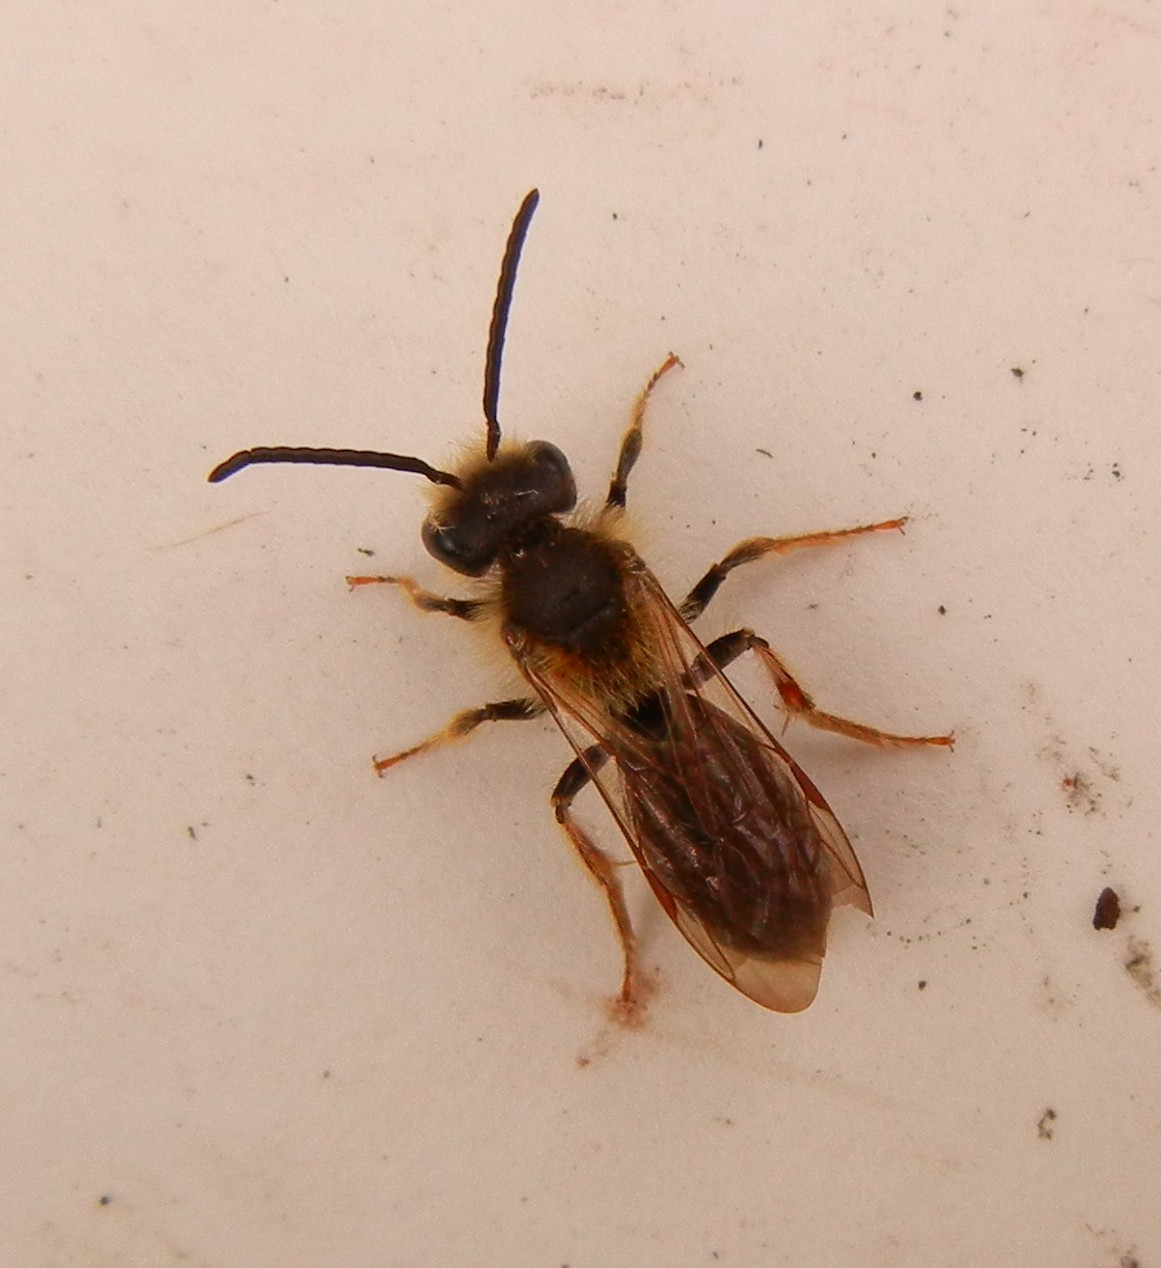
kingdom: Animalia
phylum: Arthropoda
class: Insecta
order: Hymenoptera
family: Andrenidae
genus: Andrena
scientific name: Andrena haemorrhoa
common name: Early mining bee
